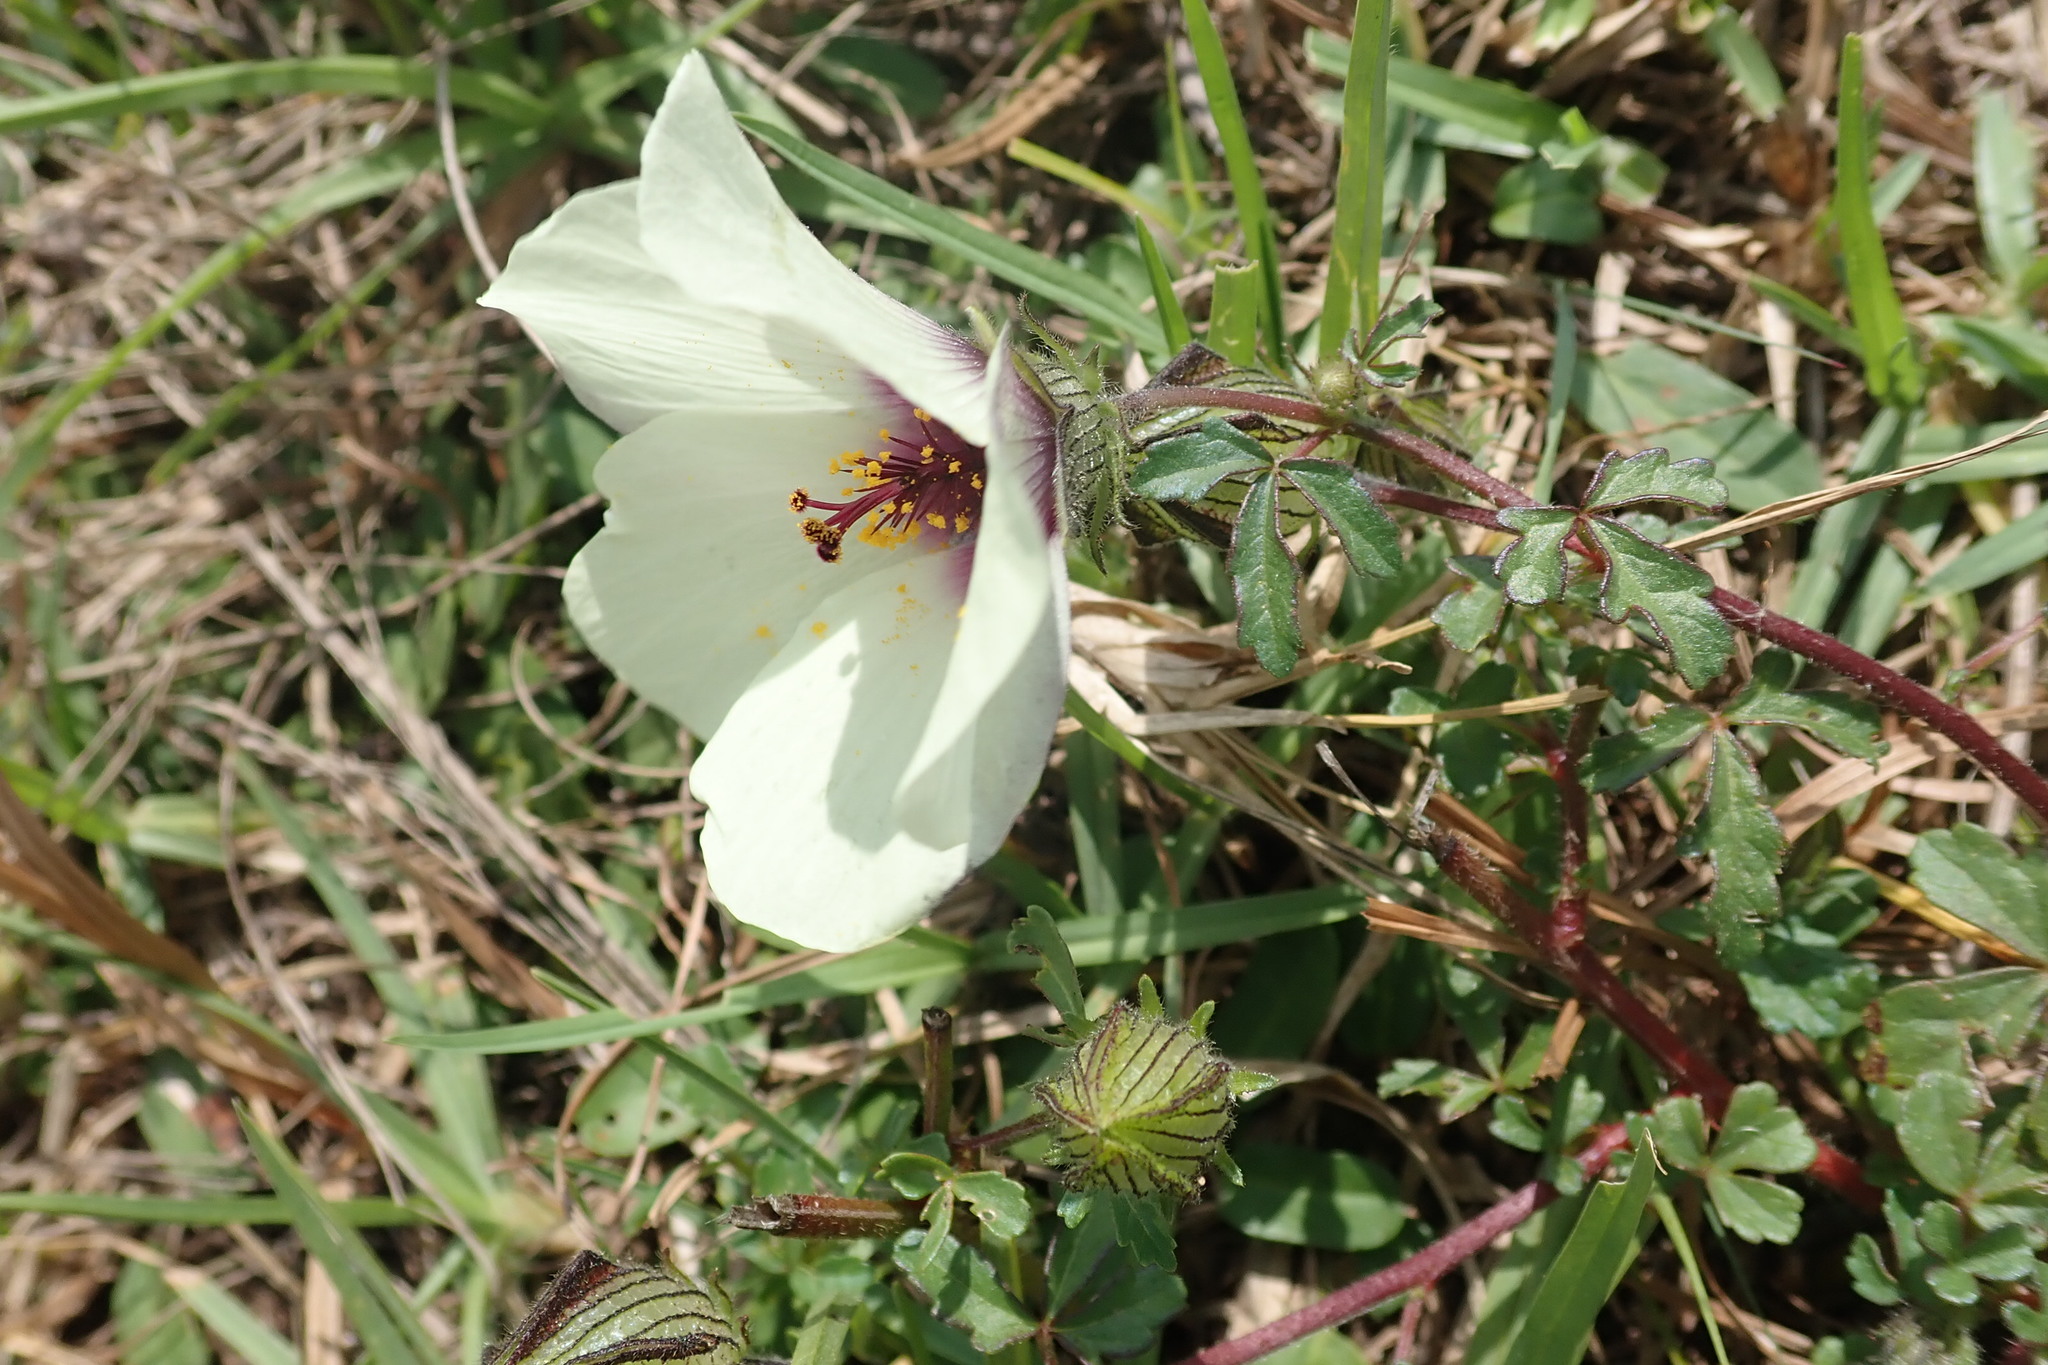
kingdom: Plantae
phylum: Tracheophyta
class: Magnoliopsida
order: Malvales
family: Malvaceae
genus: Hibiscus
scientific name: Hibiscus trionum
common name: Bladder ketmia
